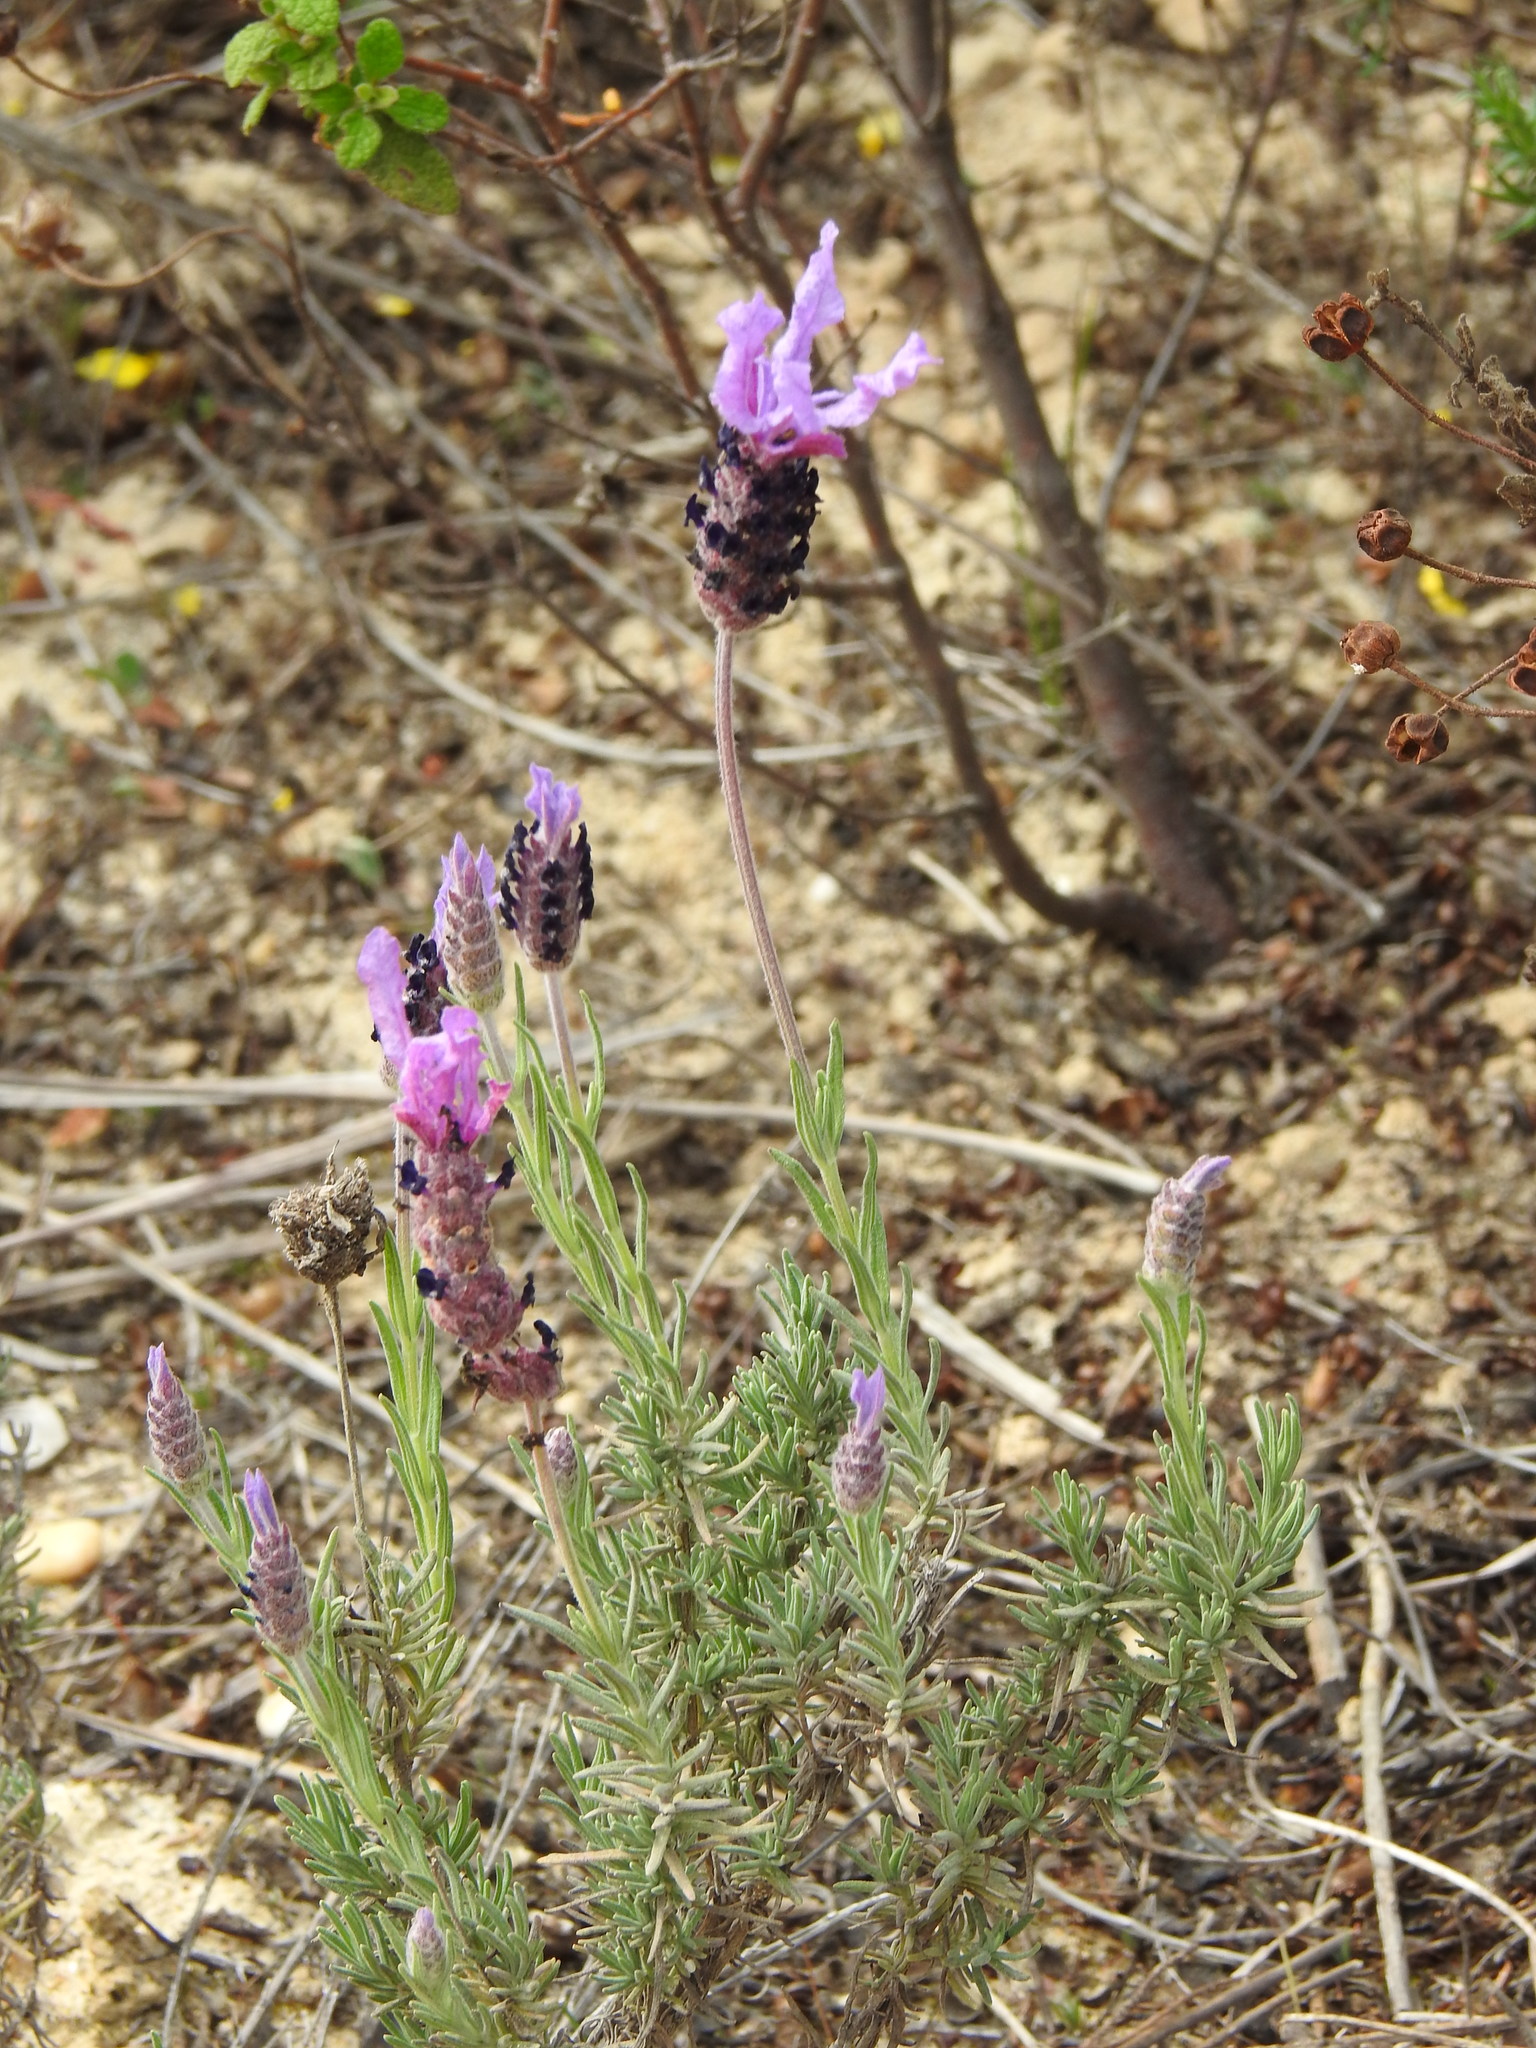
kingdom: Plantae
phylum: Tracheophyta
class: Magnoliopsida
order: Lamiales
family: Lamiaceae
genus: Lavandula
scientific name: Lavandula pedunculata
